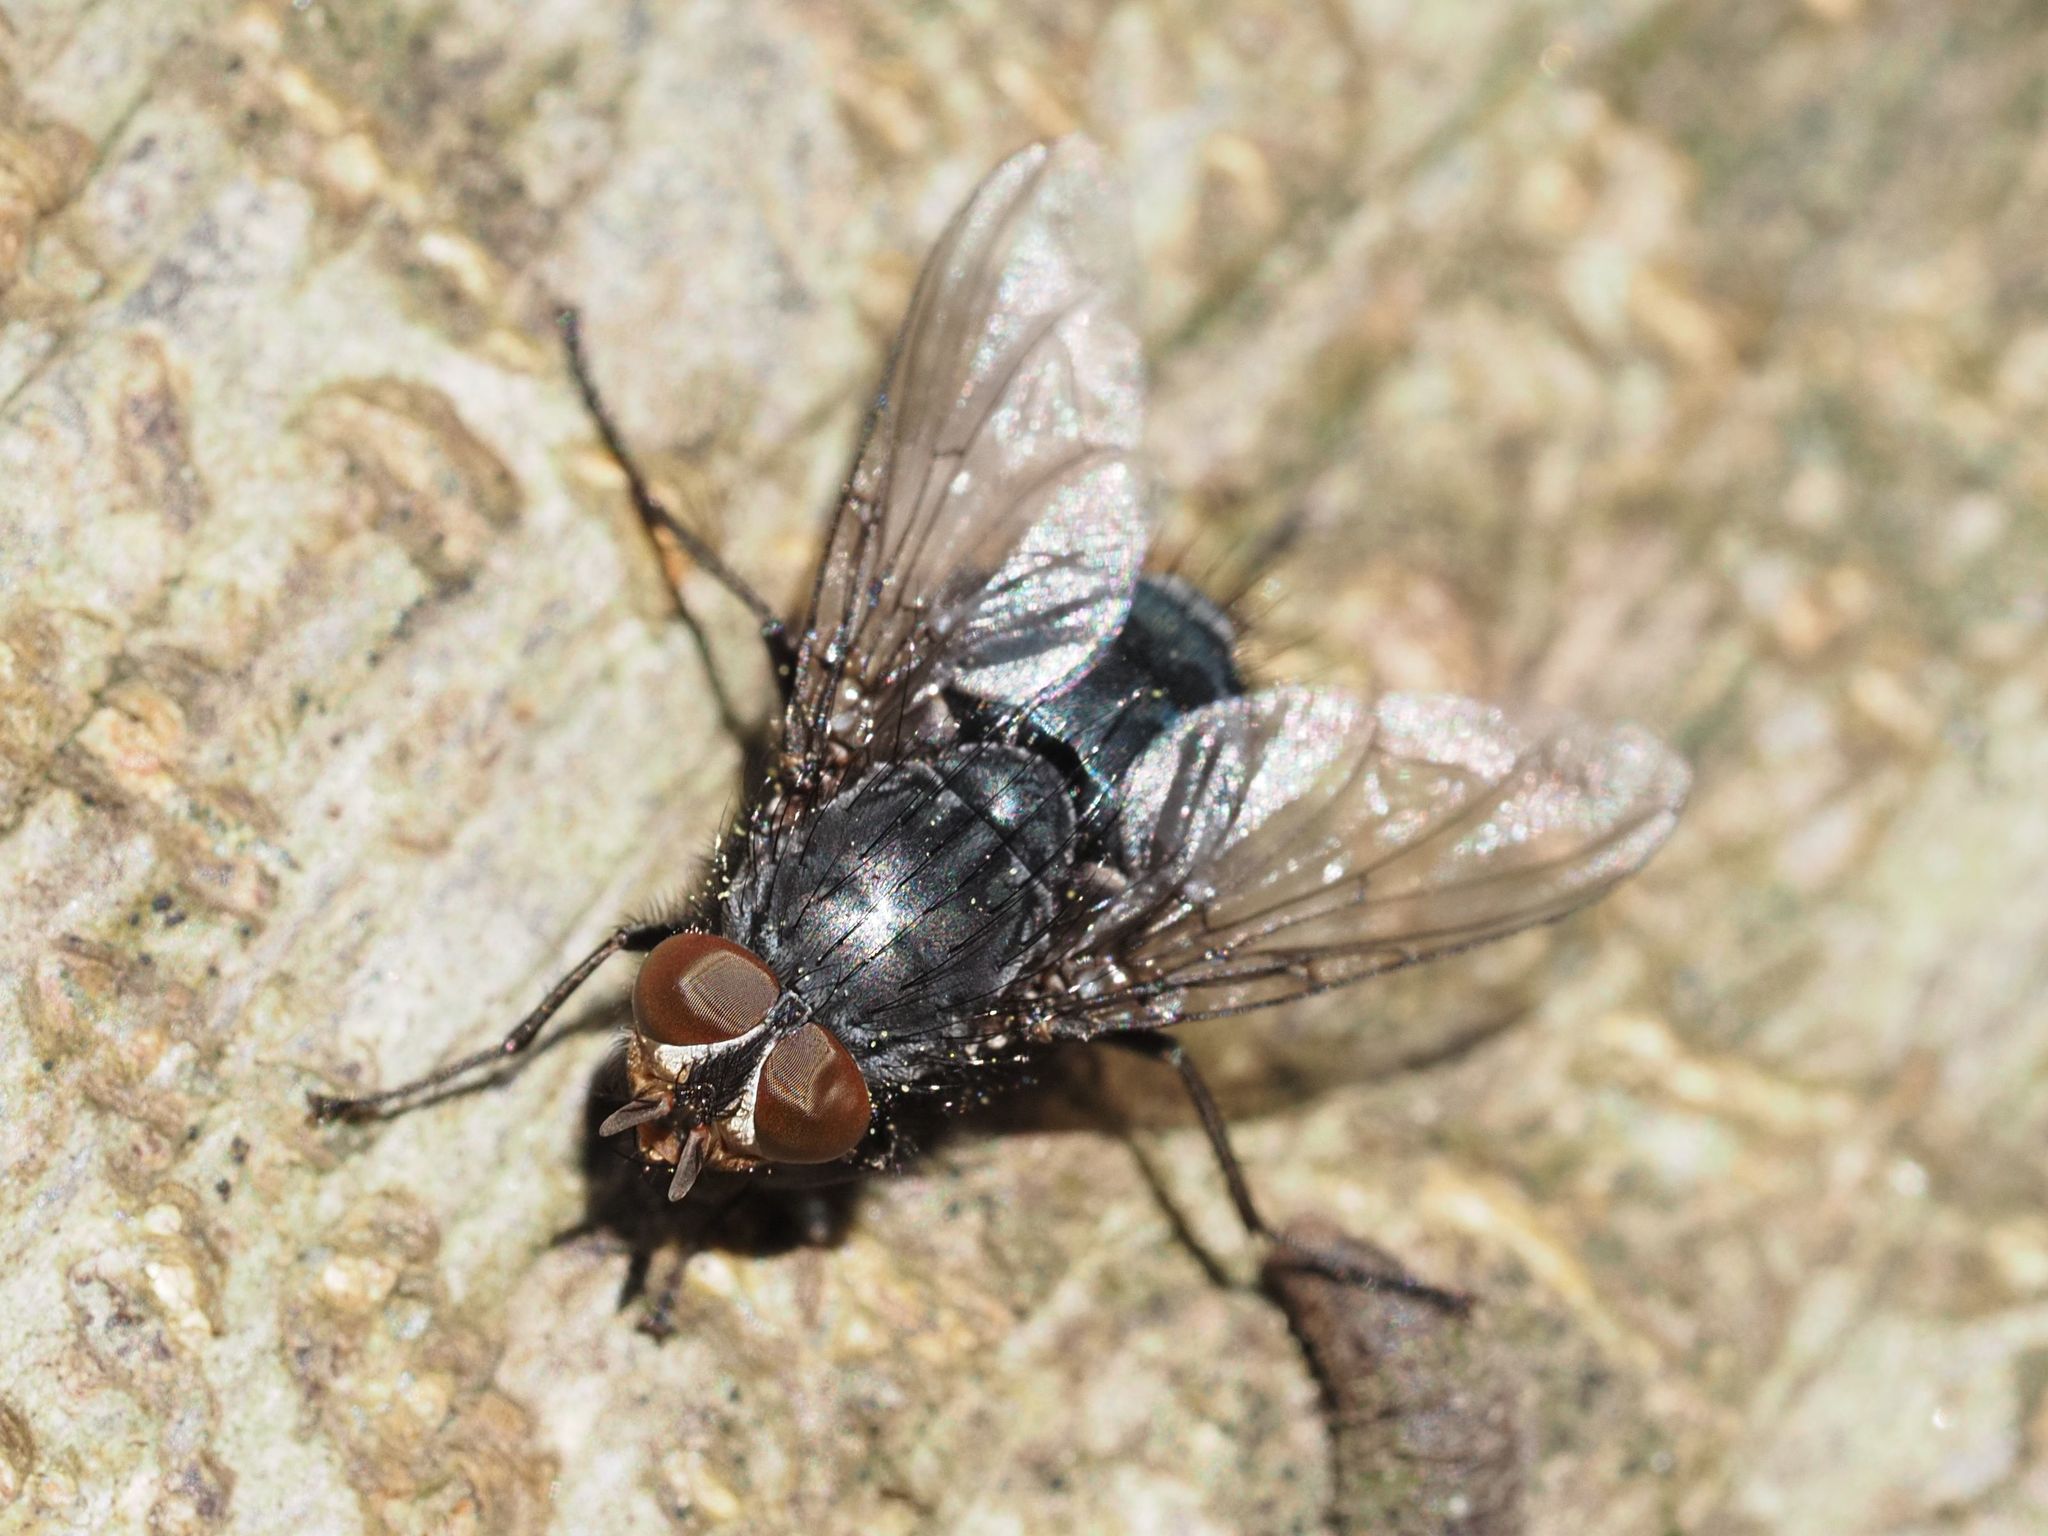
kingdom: Animalia
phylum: Arthropoda
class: Insecta
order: Diptera
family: Calliphoridae
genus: Calliphora
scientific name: Calliphora vicina
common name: Common blow flie
